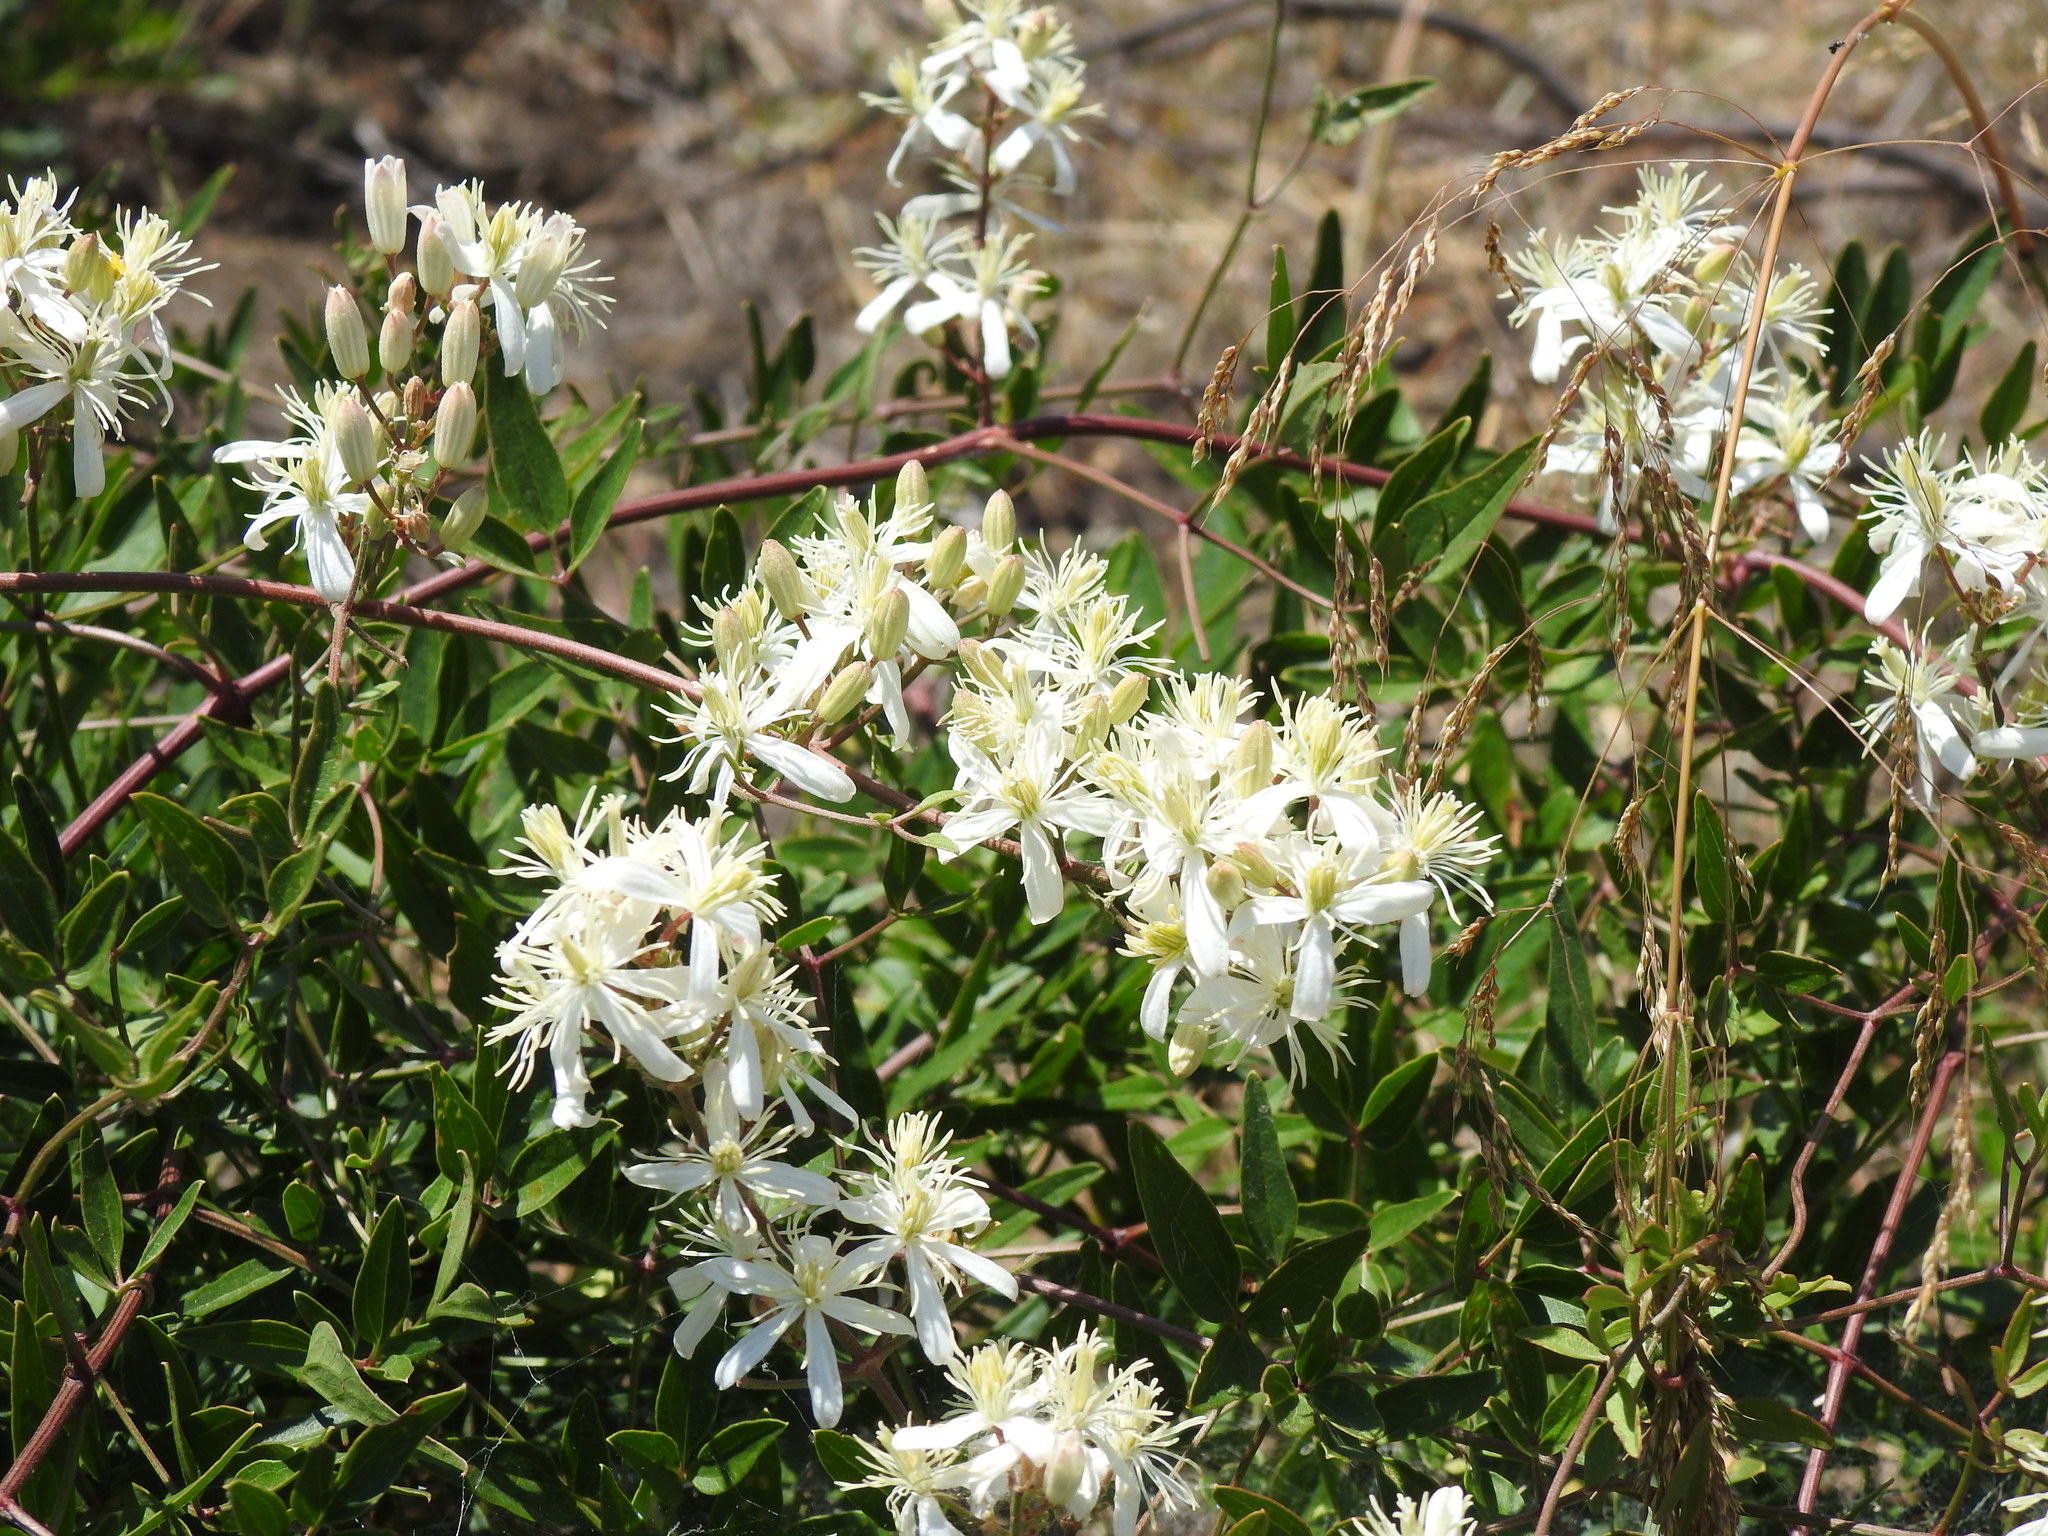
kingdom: Plantae
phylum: Tracheophyta
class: Magnoliopsida
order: Ranunculales
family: Ranunculaceae
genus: Clematis
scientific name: Clematis flammula
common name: Virgin's-bower
